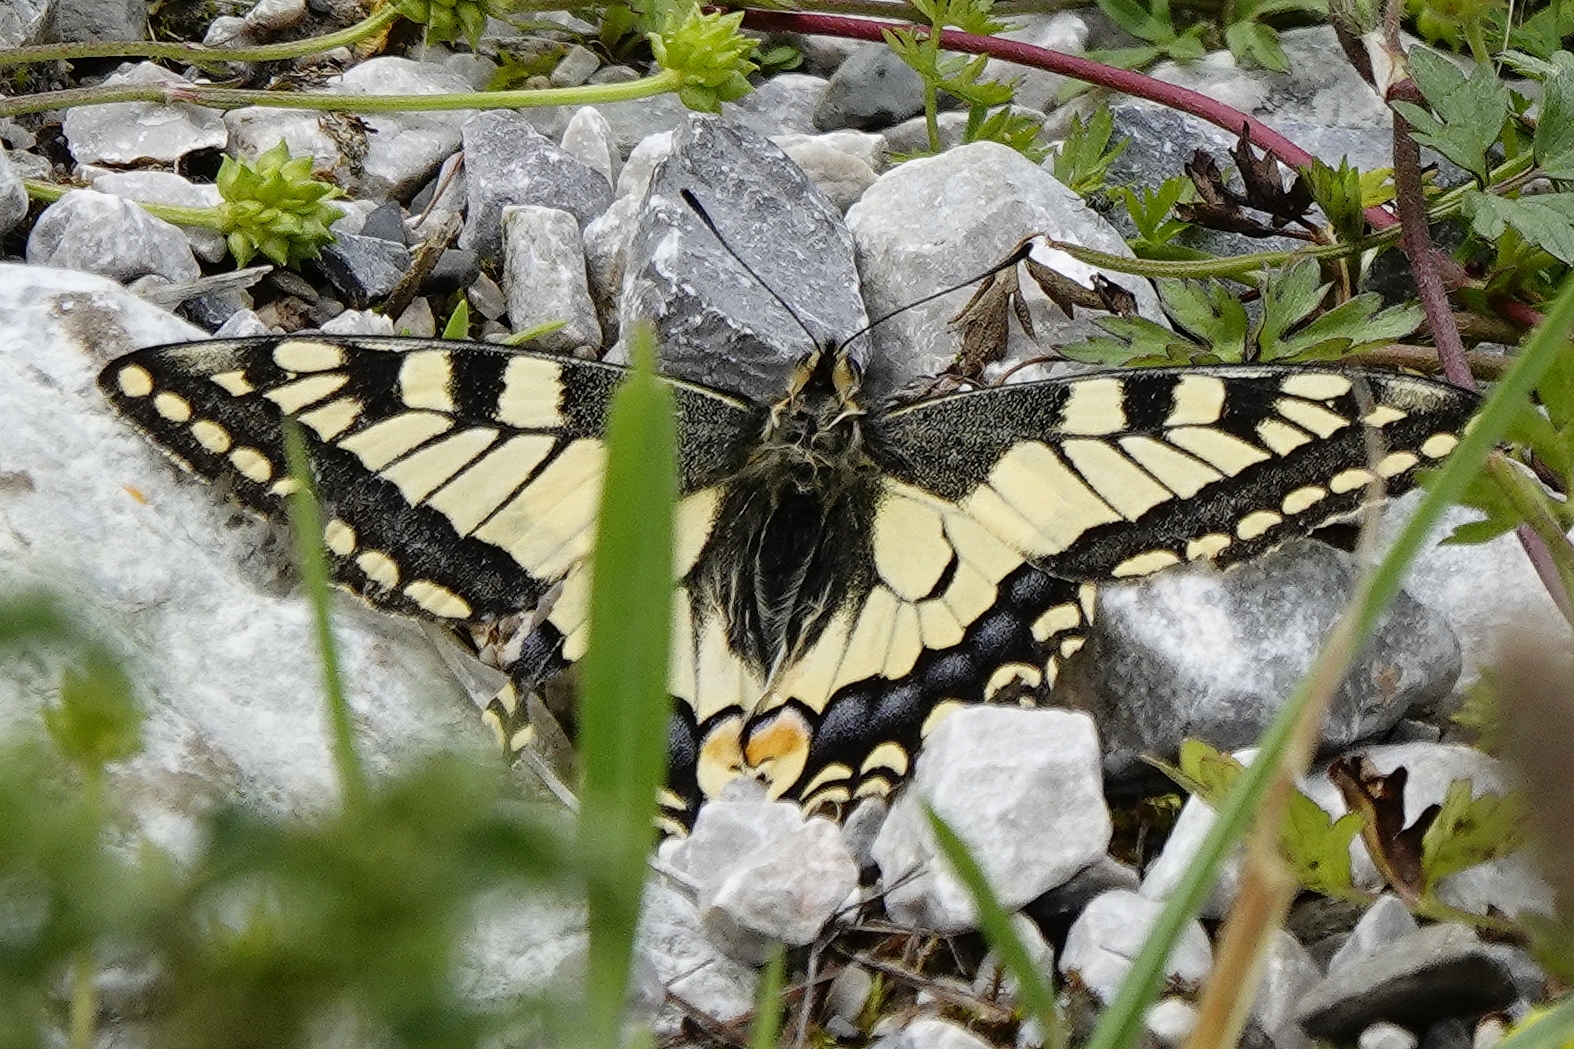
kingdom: Animalia
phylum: Arthropoda
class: Insecta
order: Lepidoptera
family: Papilionidae
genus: Papilio
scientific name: Papilio machaon
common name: Swallowtail
